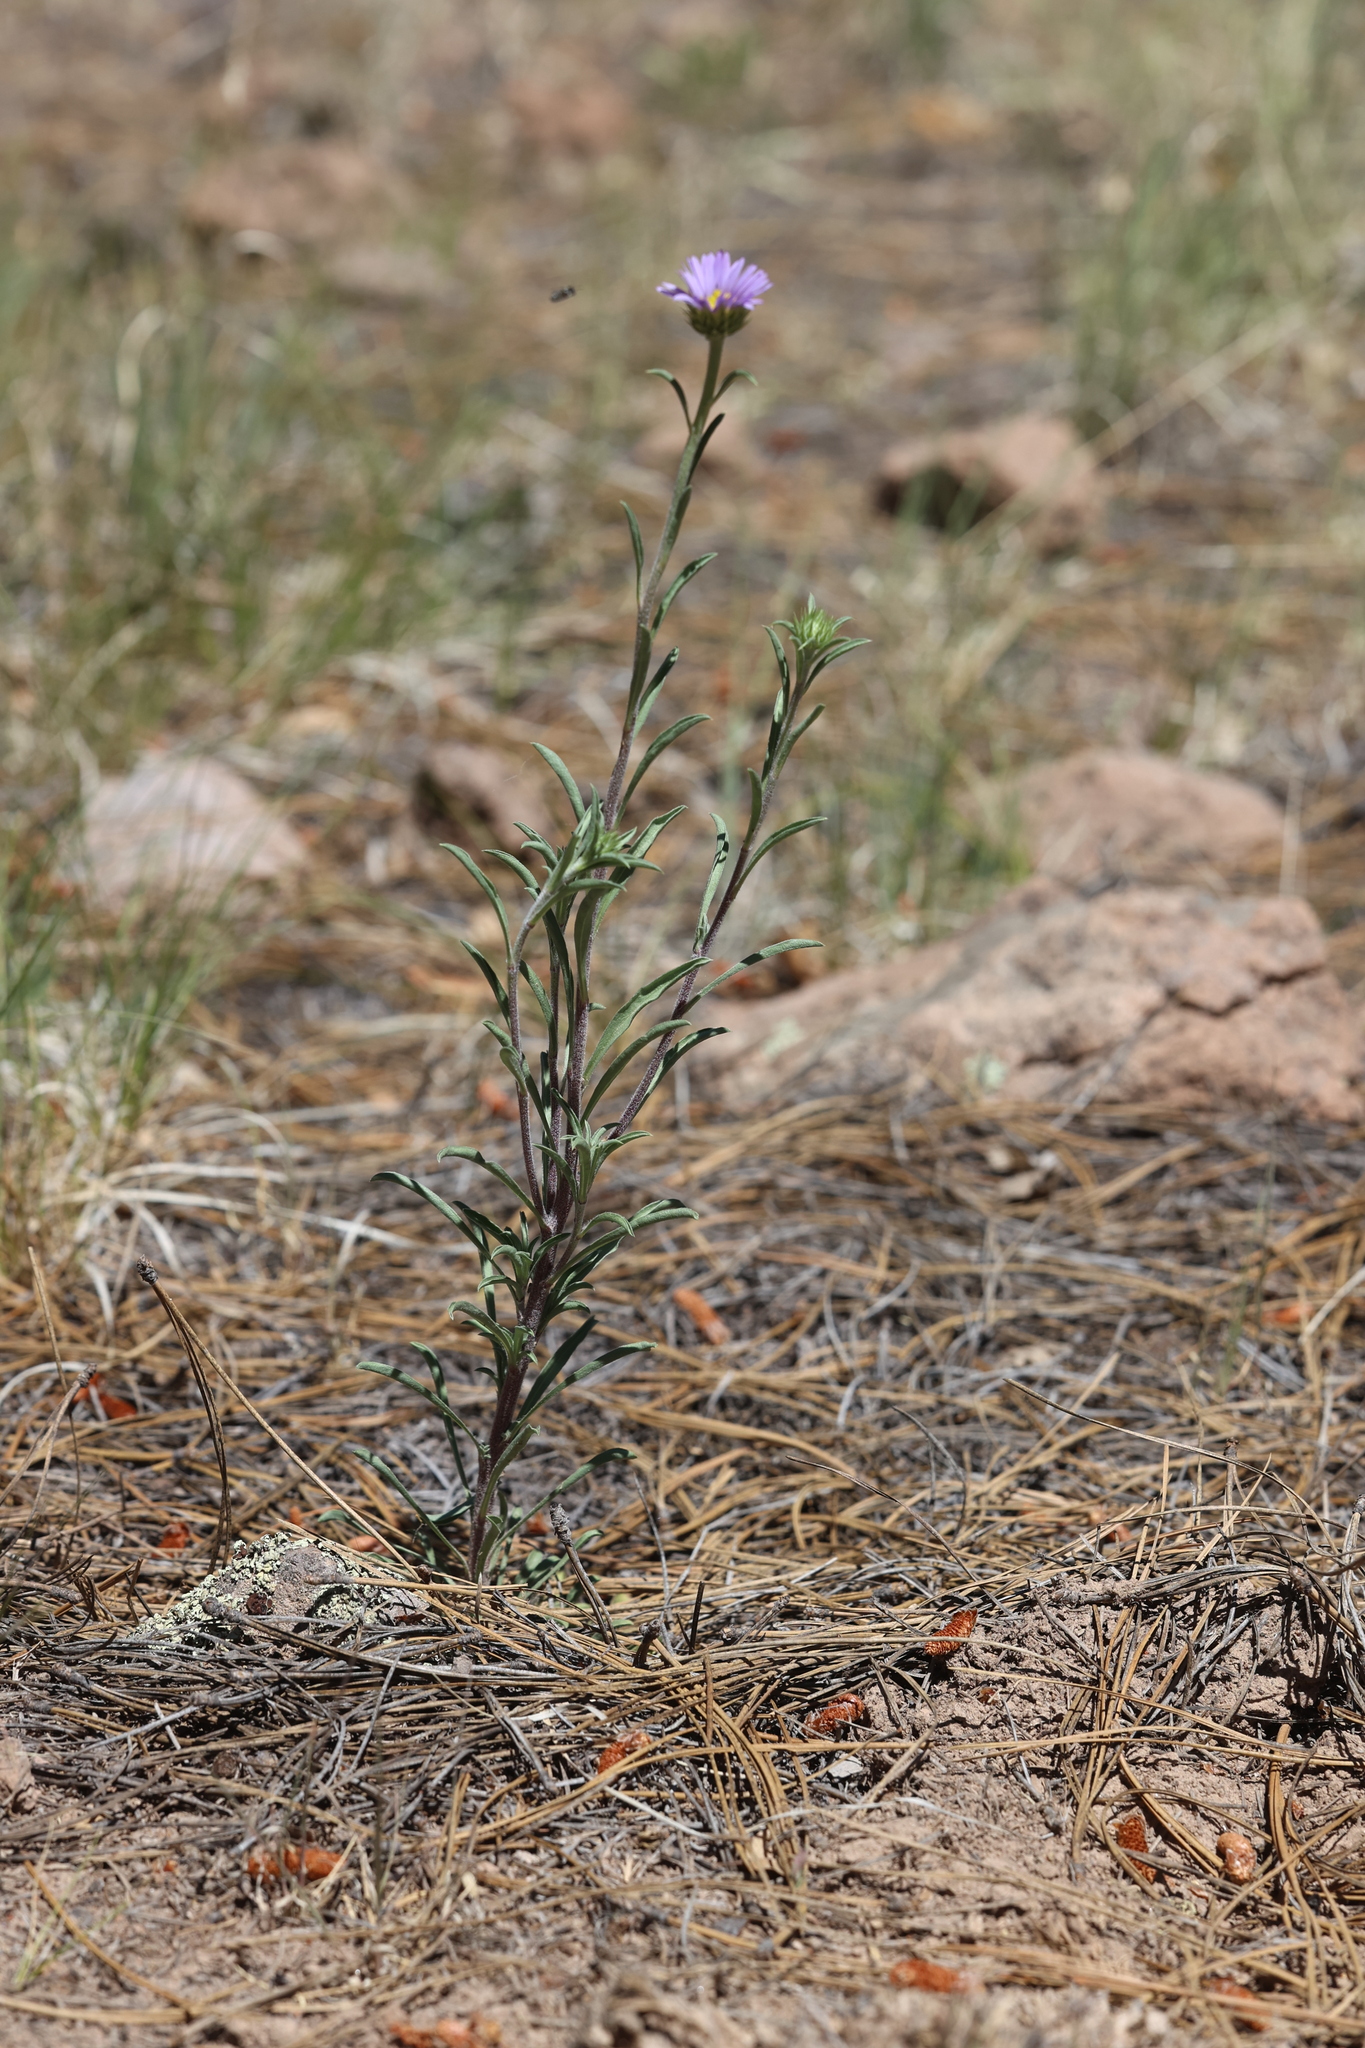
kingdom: Plantae
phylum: Tracheophyta
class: Magnoliopsida
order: Asterales
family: Asteraceae
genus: Townsendia
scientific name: Townsendia eximia
